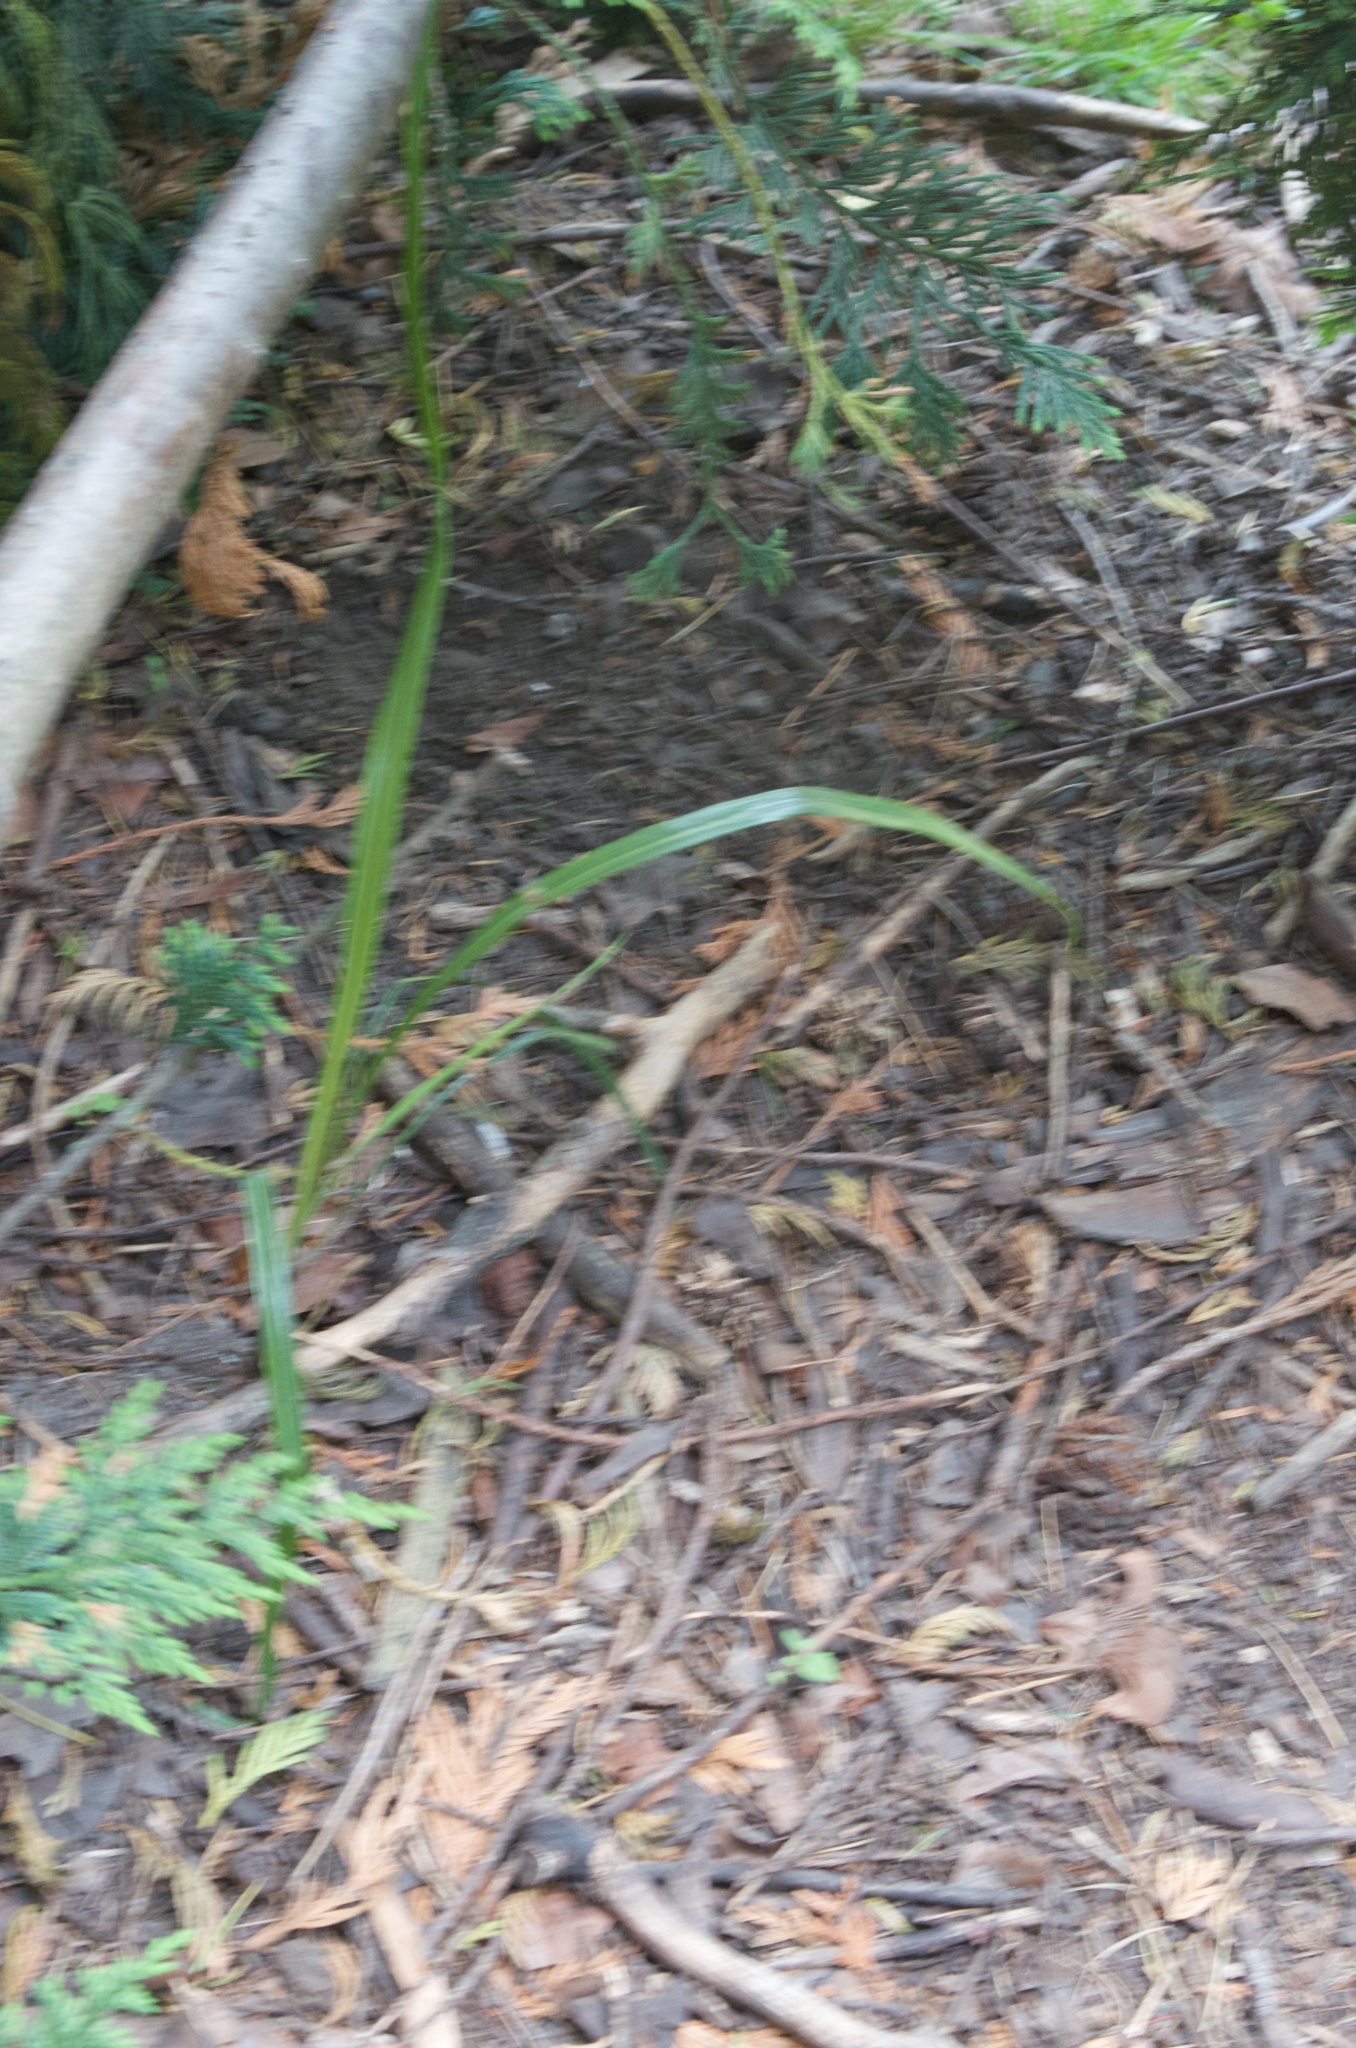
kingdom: Plantae
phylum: Tracheophyta
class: Liliopsida
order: Asparagales
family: Asparagaceae
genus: Cordyline
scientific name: Cordyline australis
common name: Cabbage-palm
